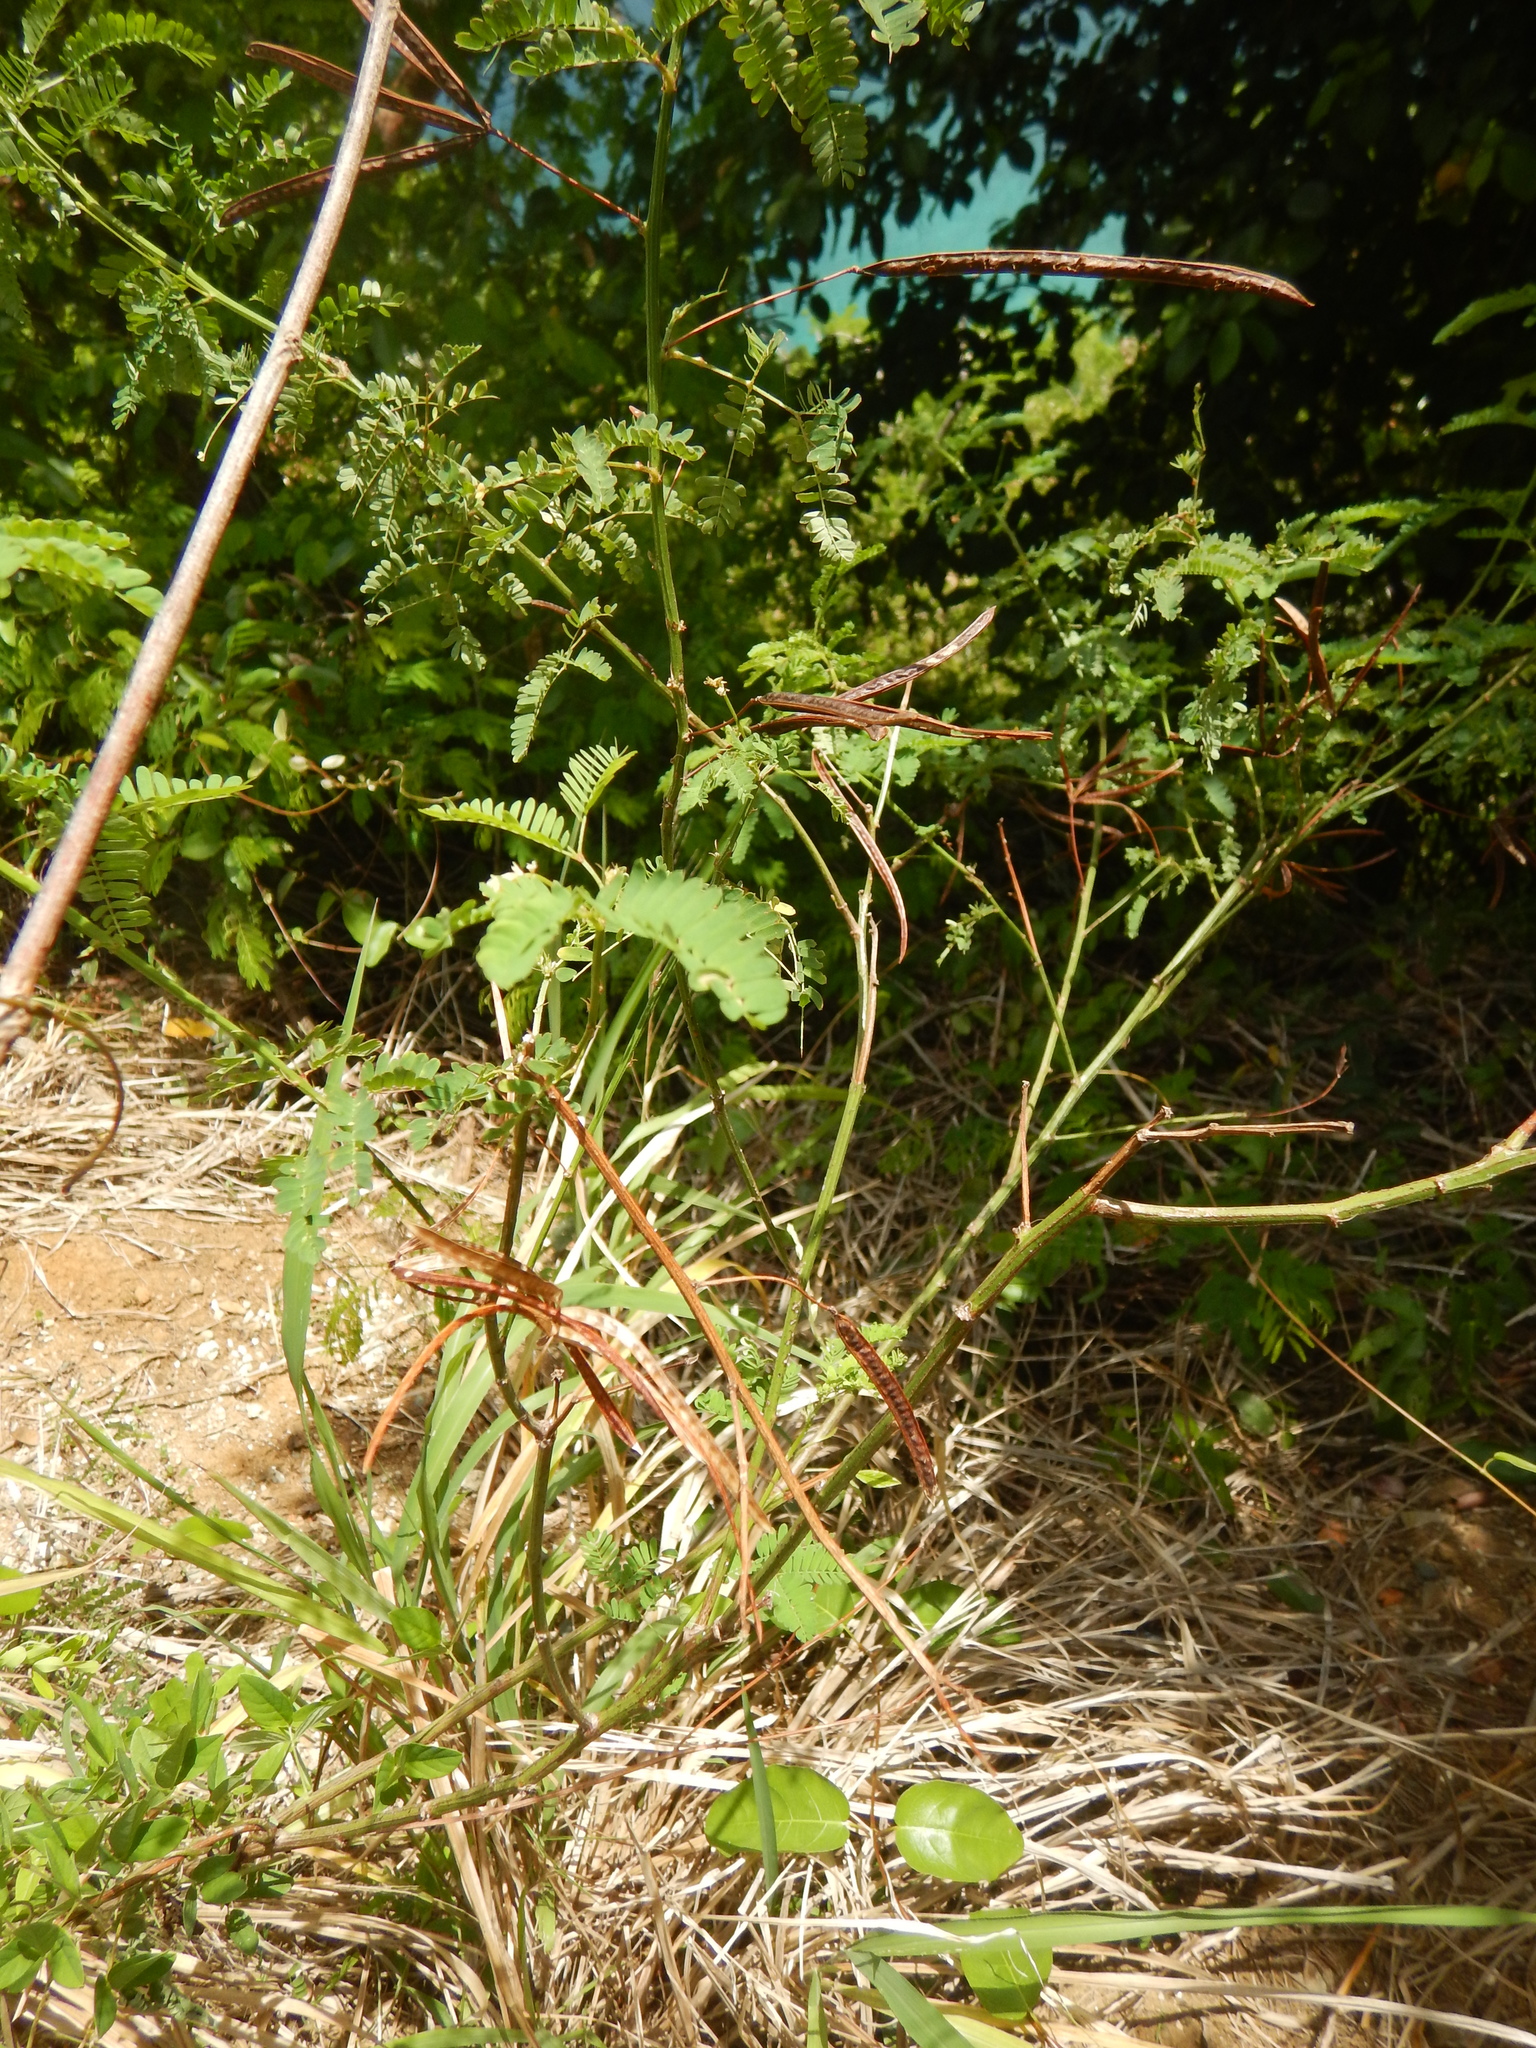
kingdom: Plantae
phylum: Tracheophyta
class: Magnoliopsida
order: Fabales
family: Fabaceae
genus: Desmanthus
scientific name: Desmanthus virgatus
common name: Wild tantan
